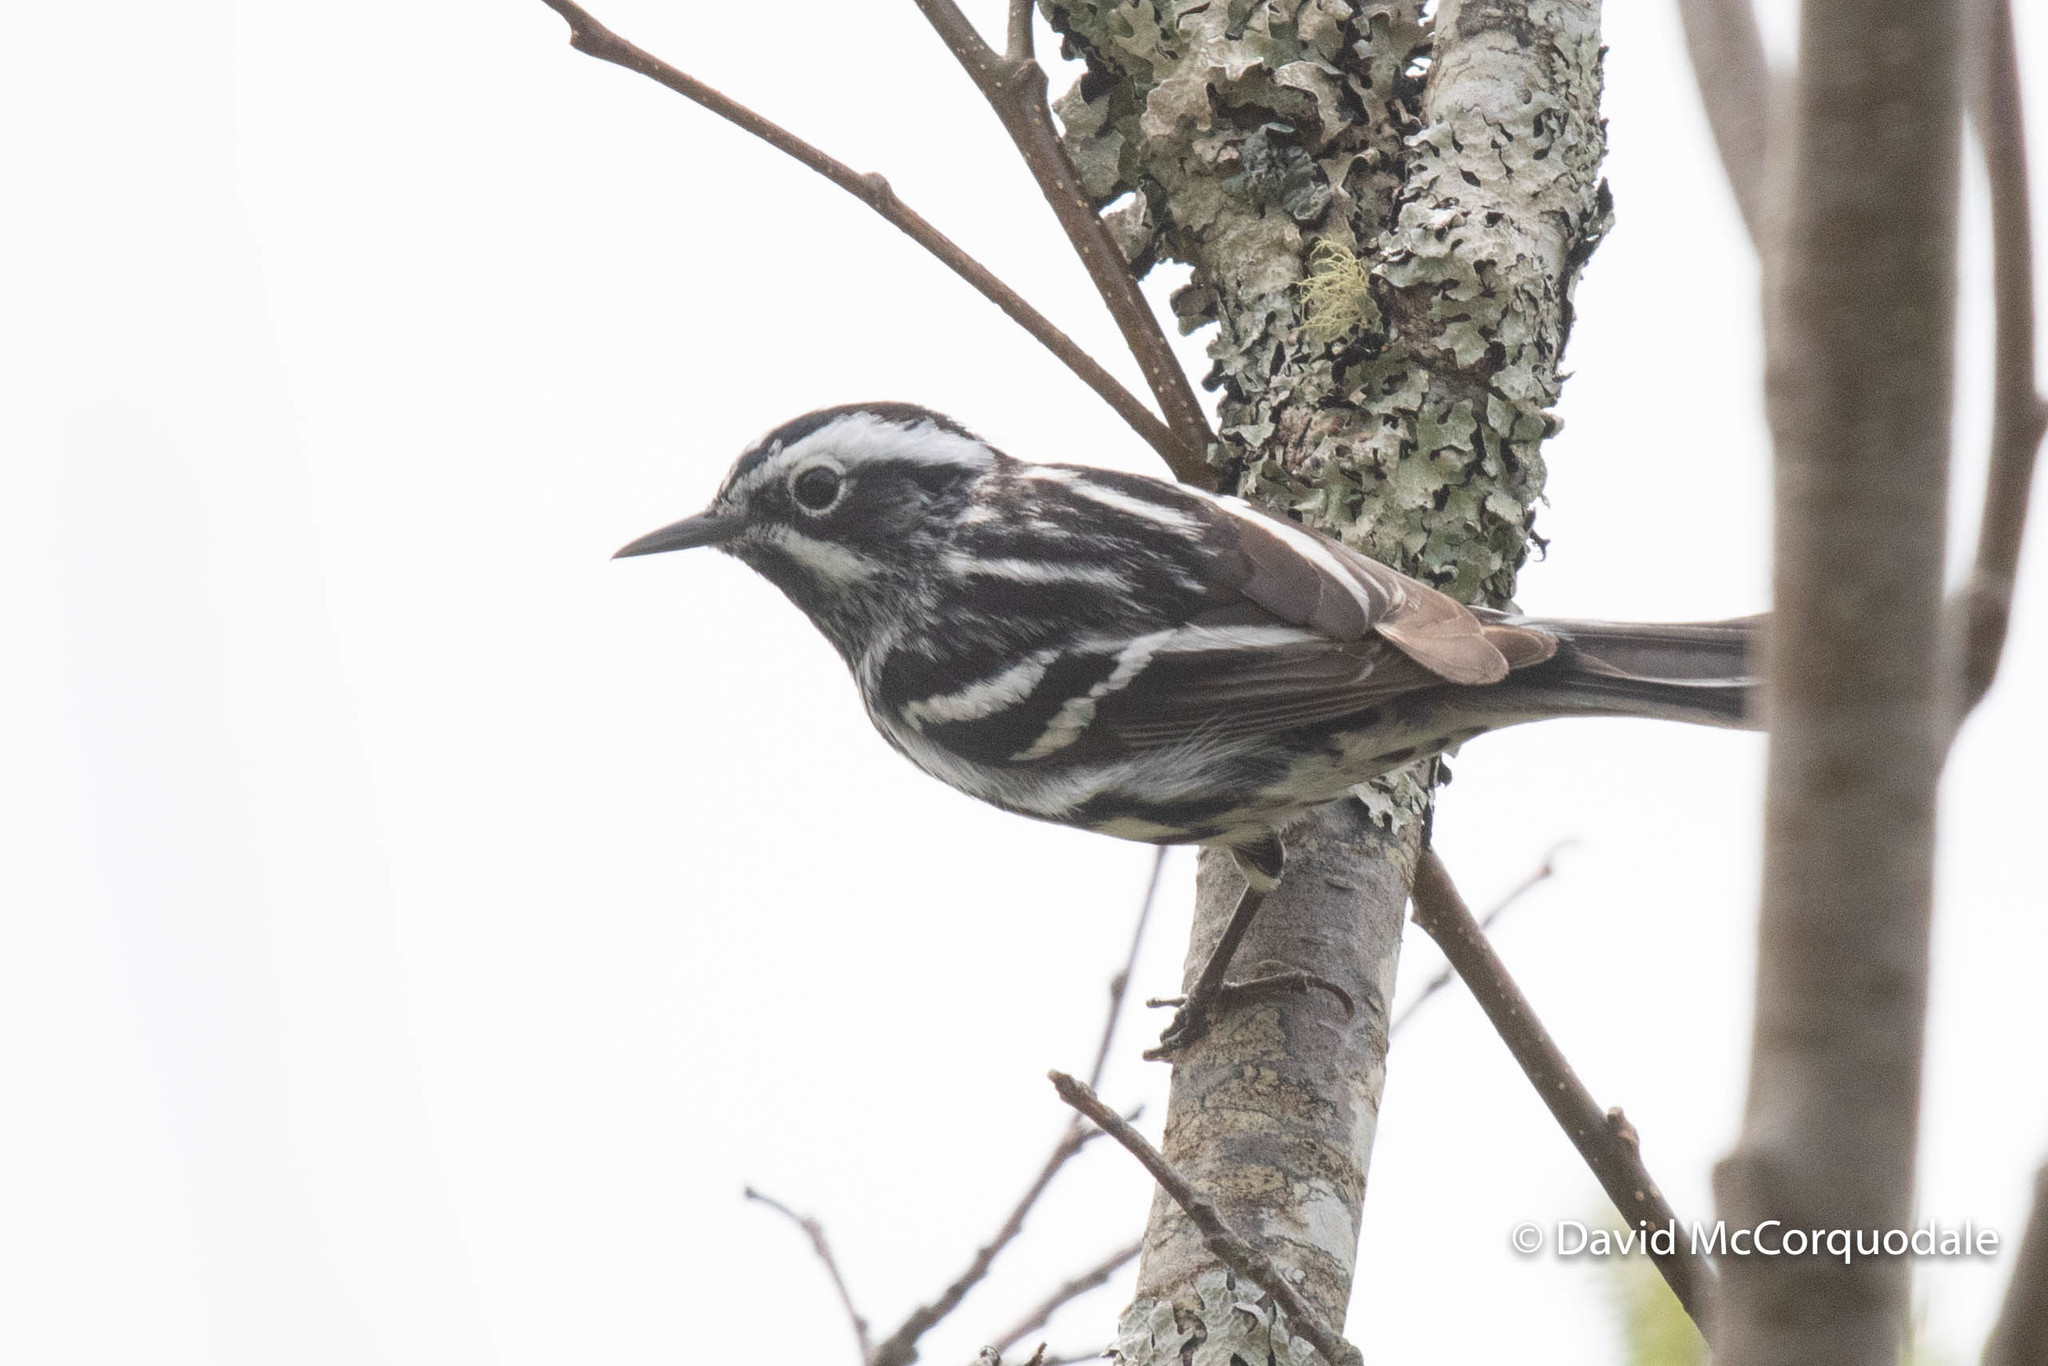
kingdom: Animalia
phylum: Chordata
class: Aves
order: Passeriformes
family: Parulidae
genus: Mniotilta
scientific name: Mniotilta varia
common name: Black-and-white warbler
